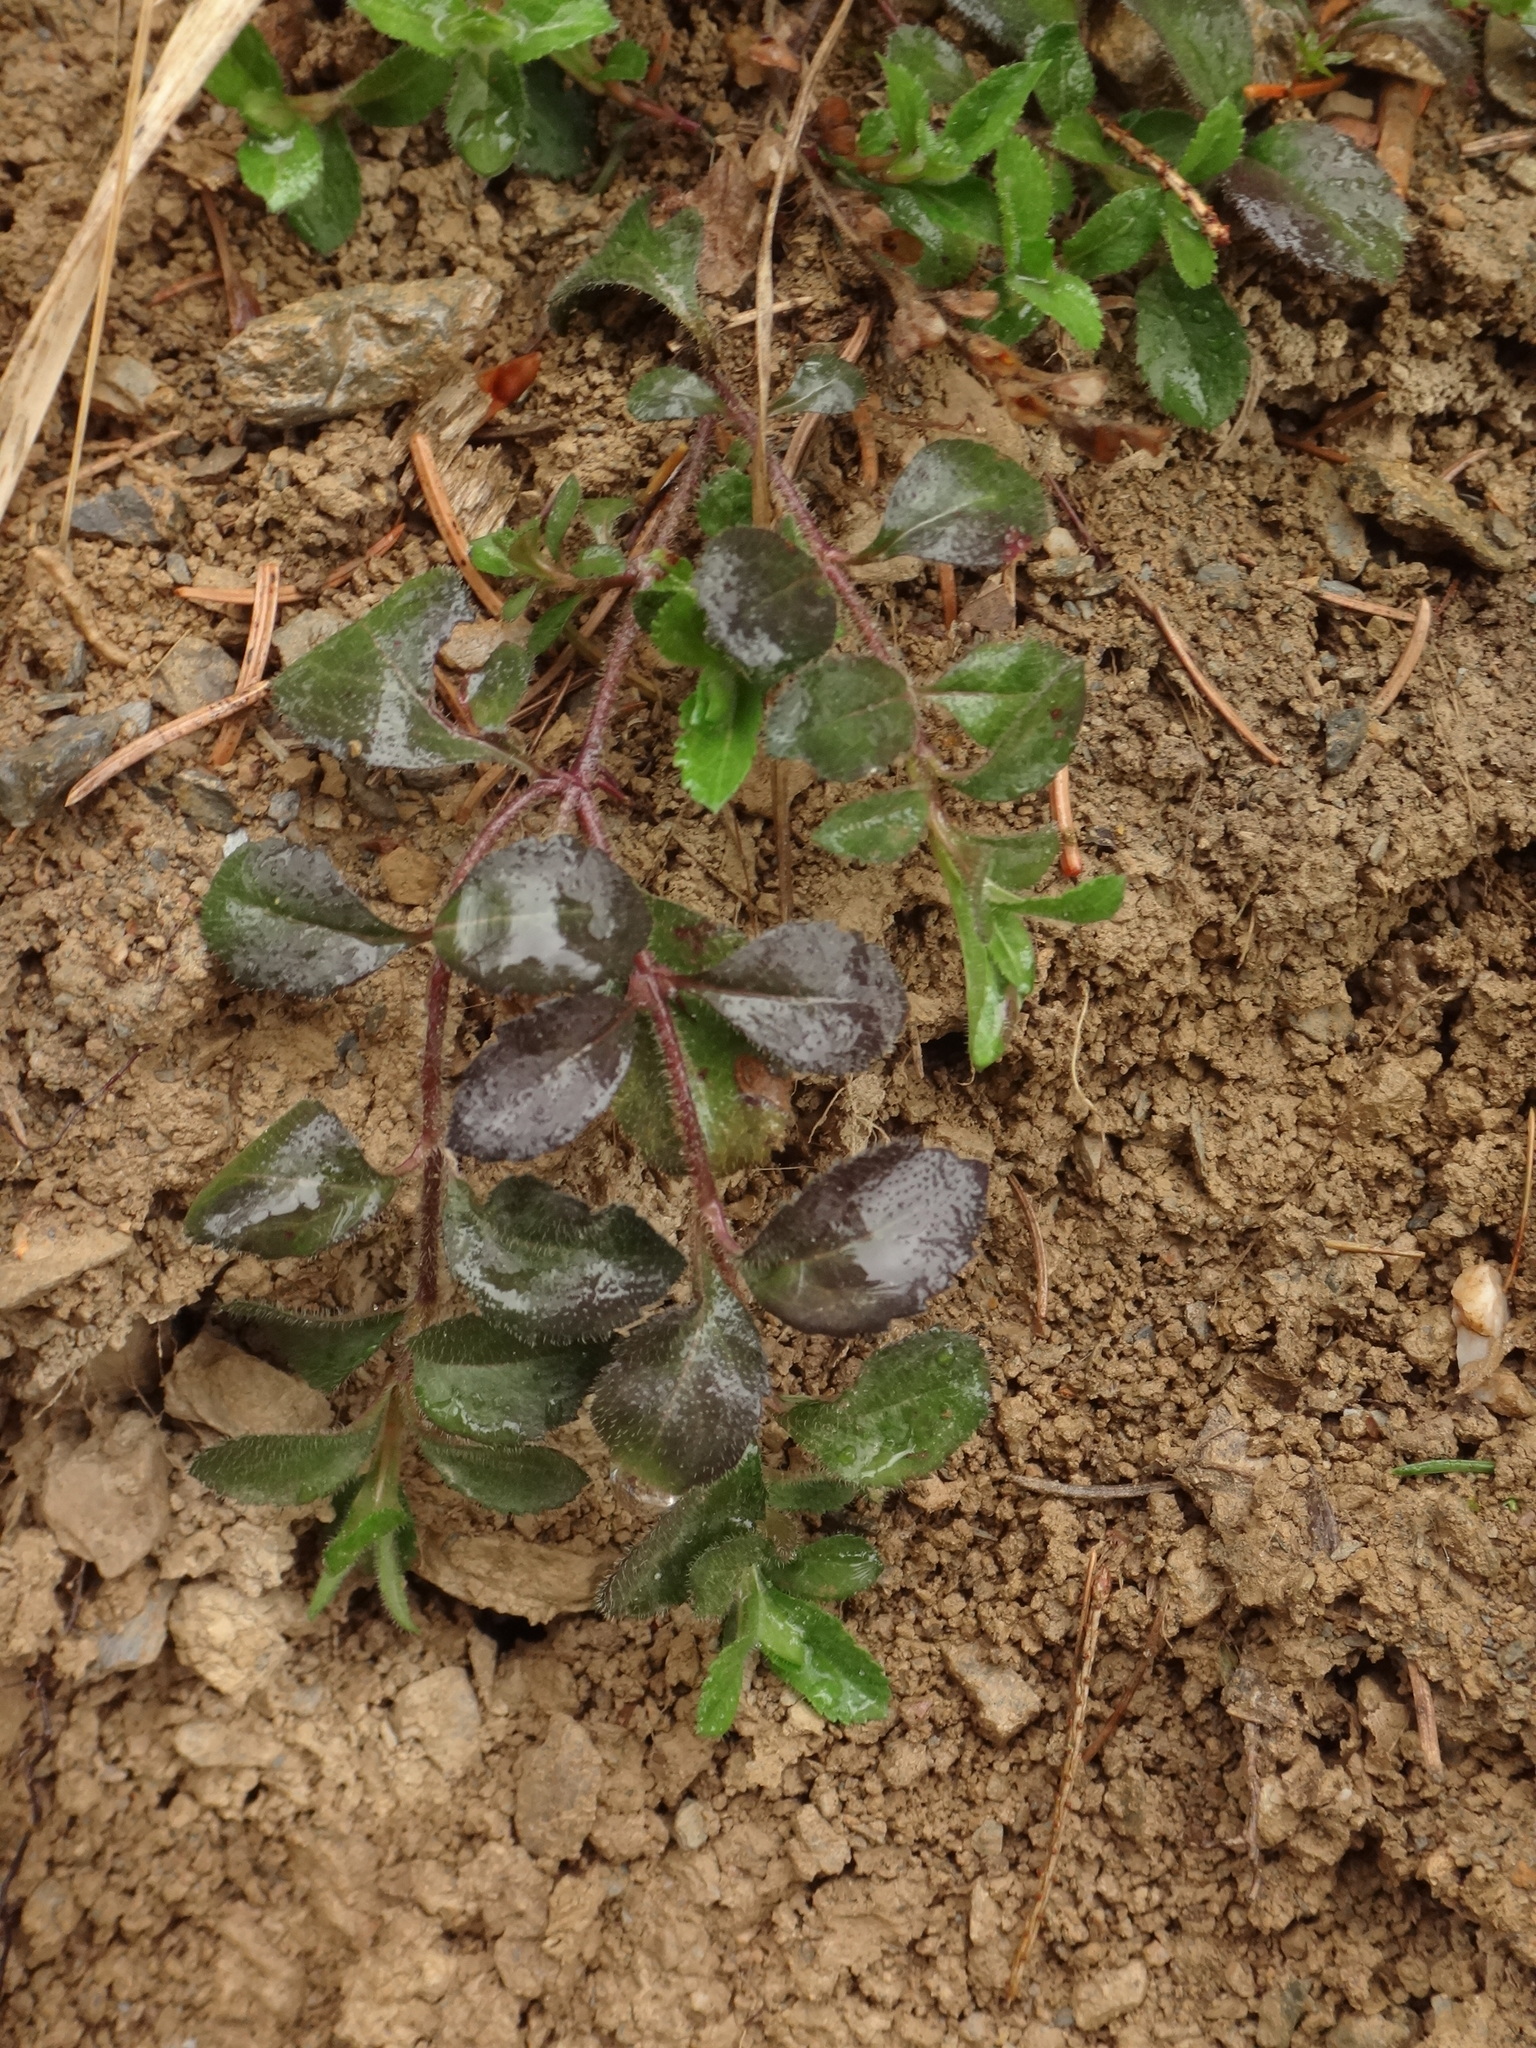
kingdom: Plantae
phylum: Tracheophyta
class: Magnoliopsida
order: Lamiales
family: Plantaginaceae
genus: Veronica
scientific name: Veronica officinalis
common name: Common speedwell
